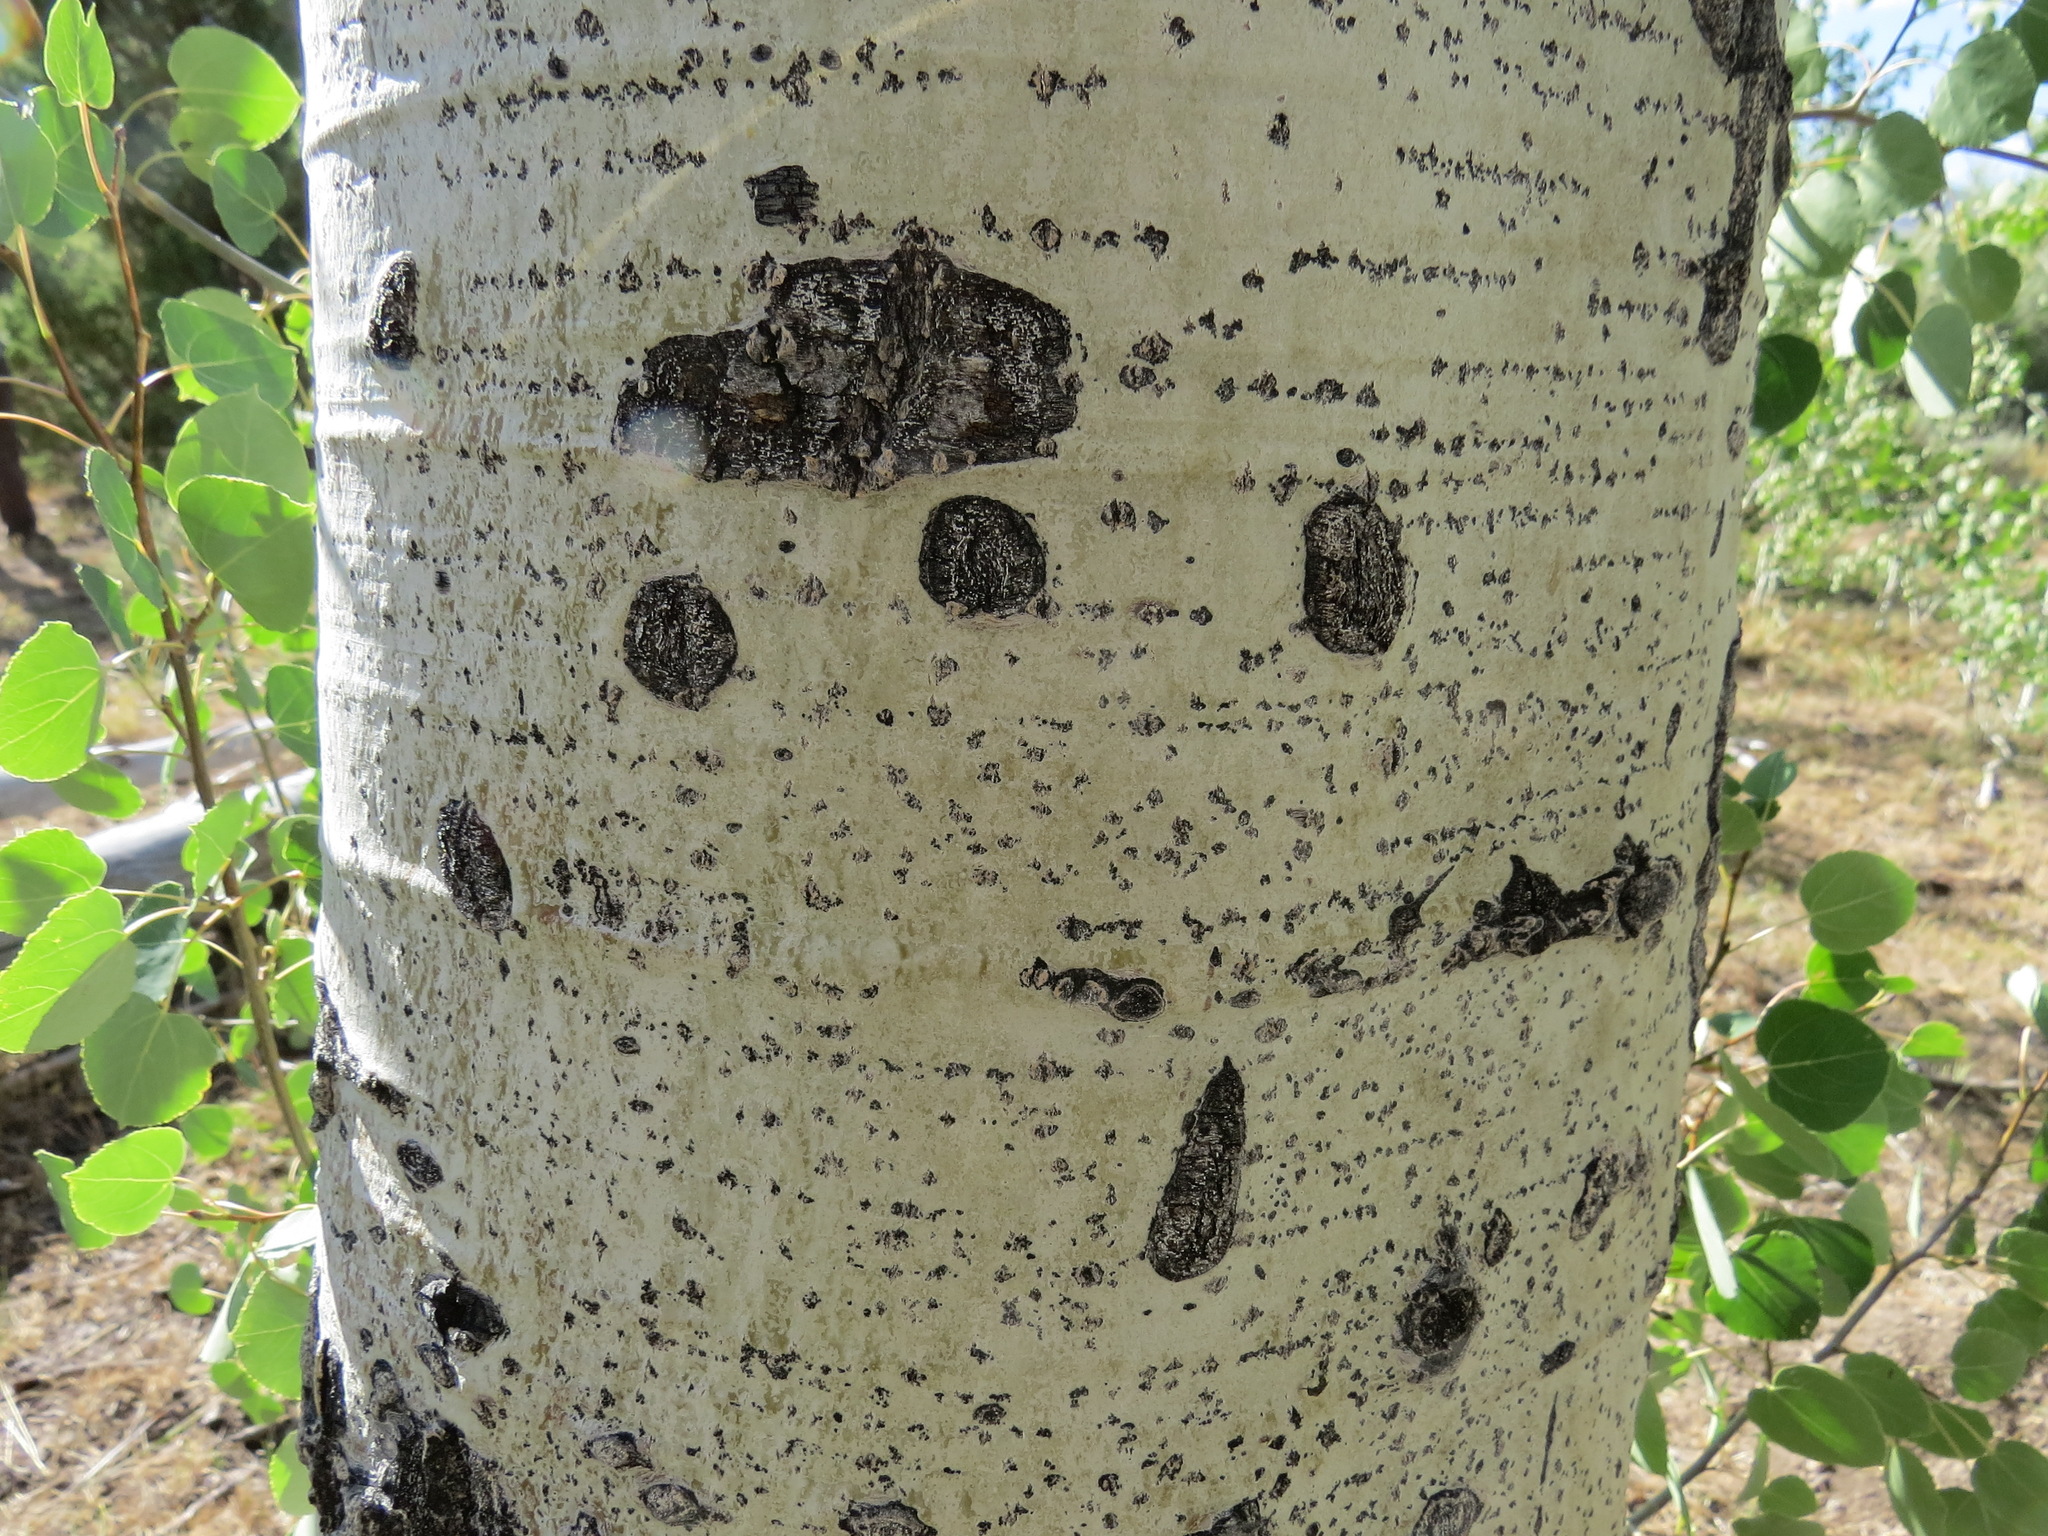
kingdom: Animalia
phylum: Chordata
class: Mammalia
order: Carnivora
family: Ursidae
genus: Ursus
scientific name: Ursus americanus
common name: American black bear
